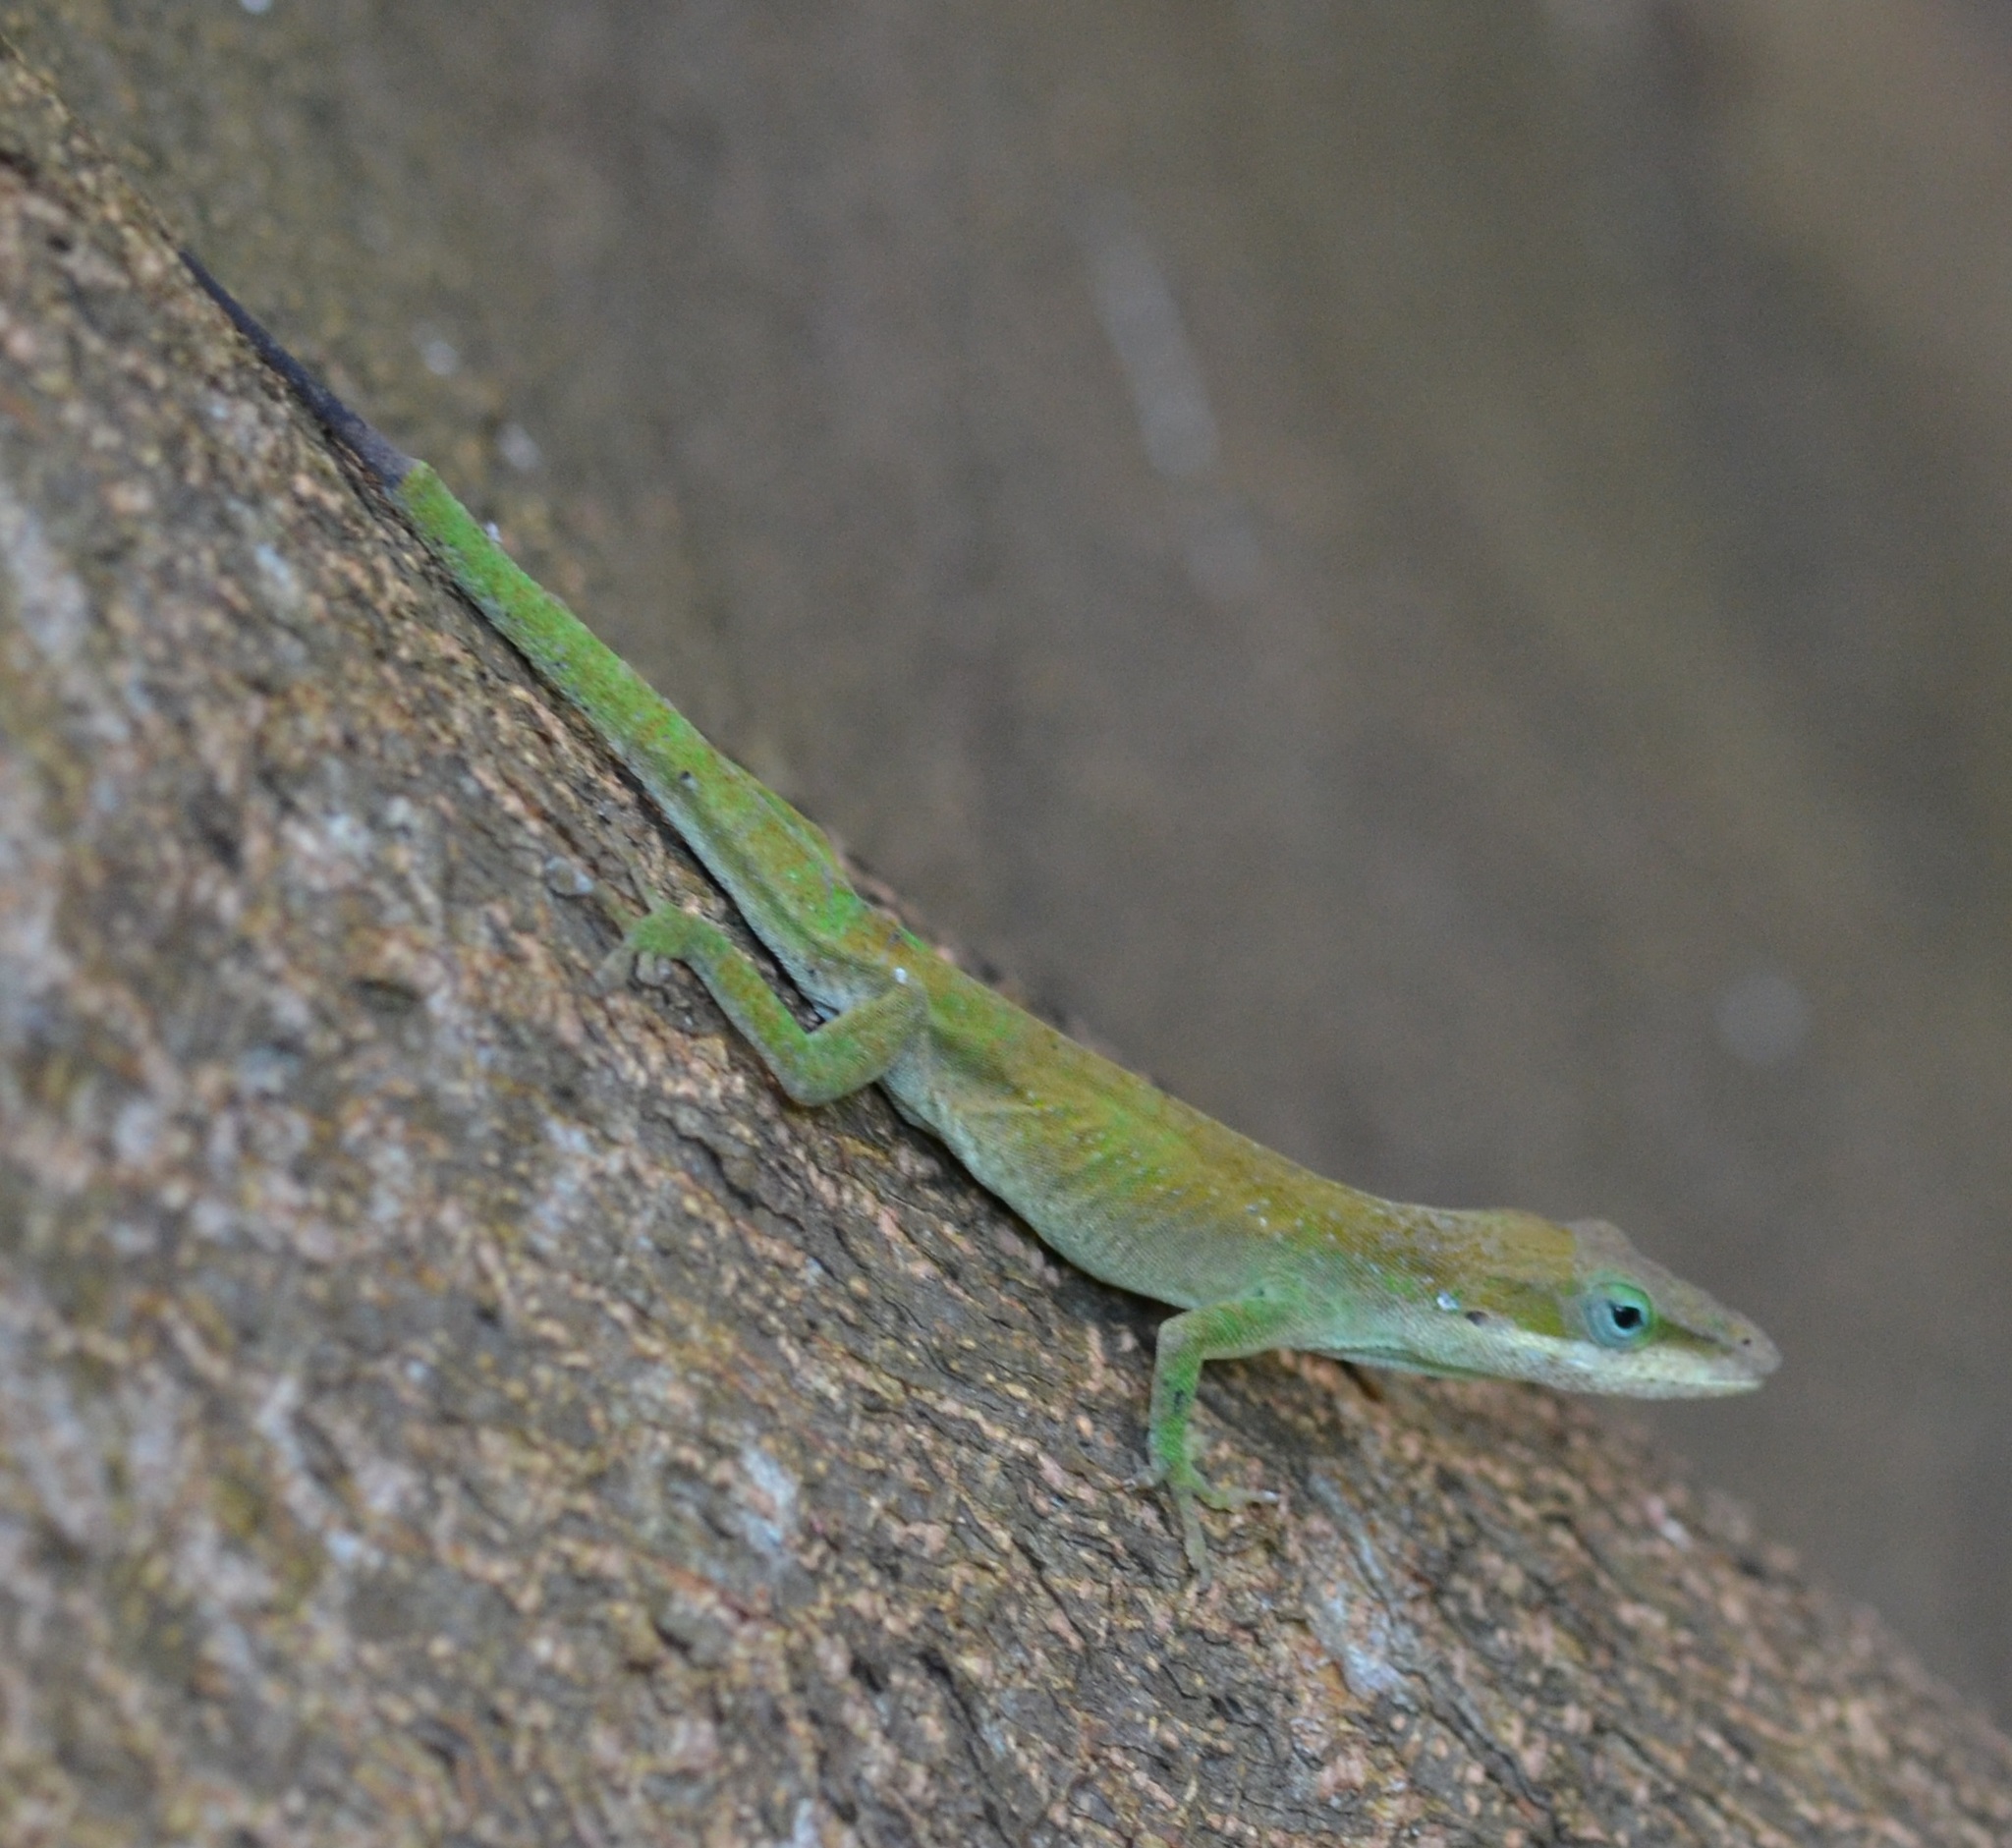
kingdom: Animalia
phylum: Chordata
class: Squamata
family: Dactyloidae
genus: Anolis
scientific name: Anolis carolinensis
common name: Green anole
